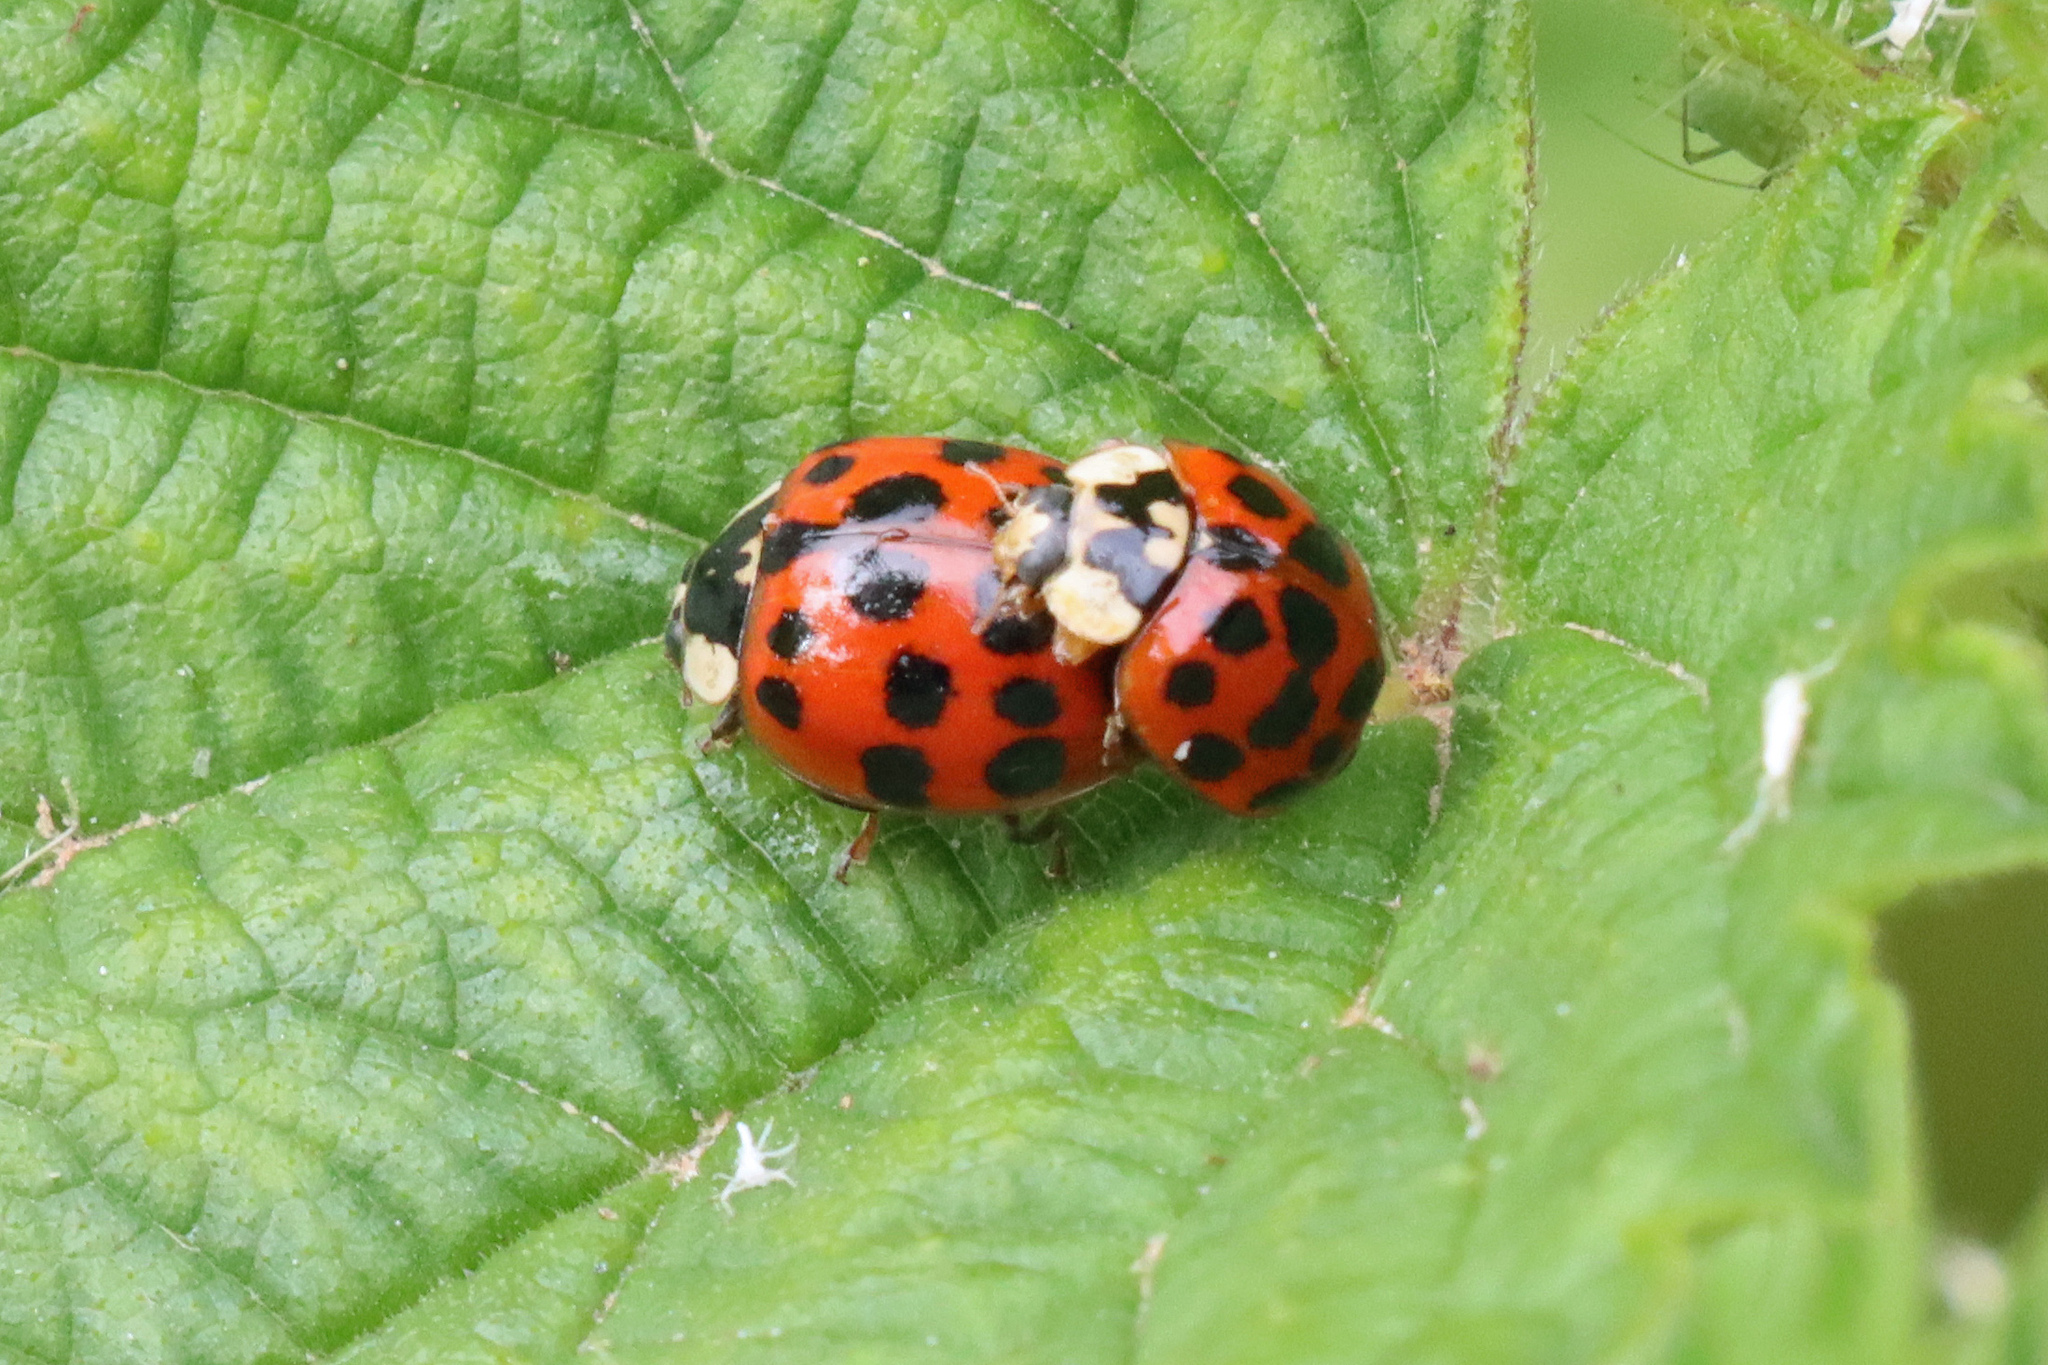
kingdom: Animalia
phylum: Arthropoda
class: Insecta
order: Coleoptera
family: Coccinellidae
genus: Harmonia
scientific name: Harmonia axyridis
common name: Harlequin ladybird
